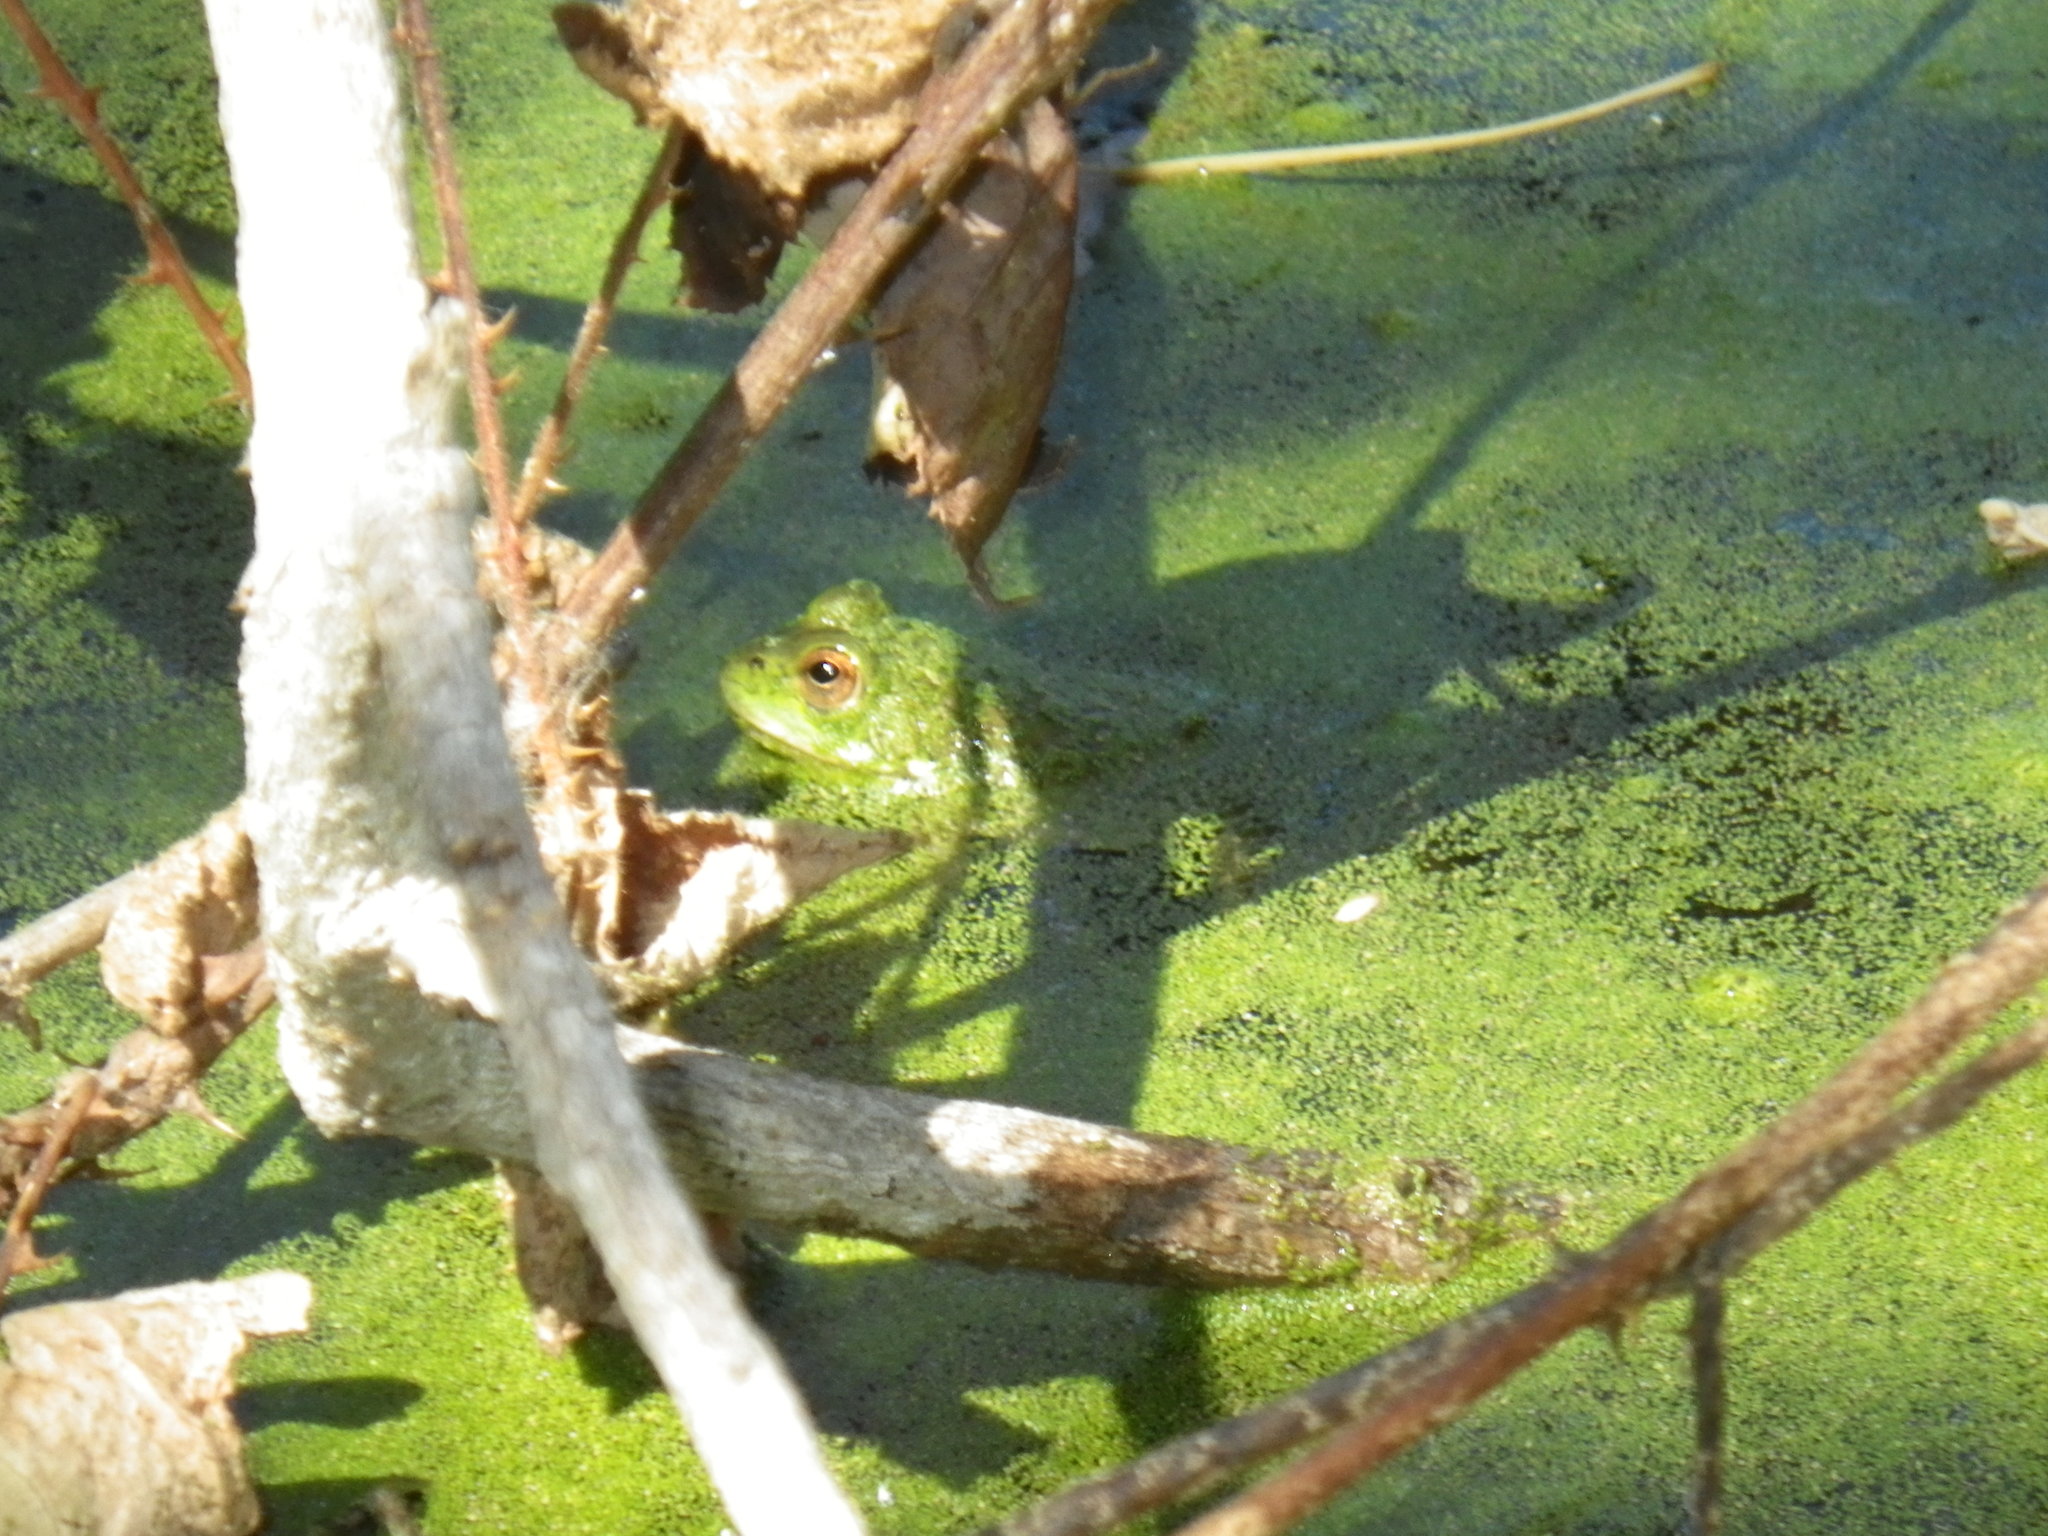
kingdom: Animalia
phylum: Chordata
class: Amphibia
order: Anura
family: Ranidae
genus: Lithobates
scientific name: Lithobates catesbeianus
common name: American bullfrog
